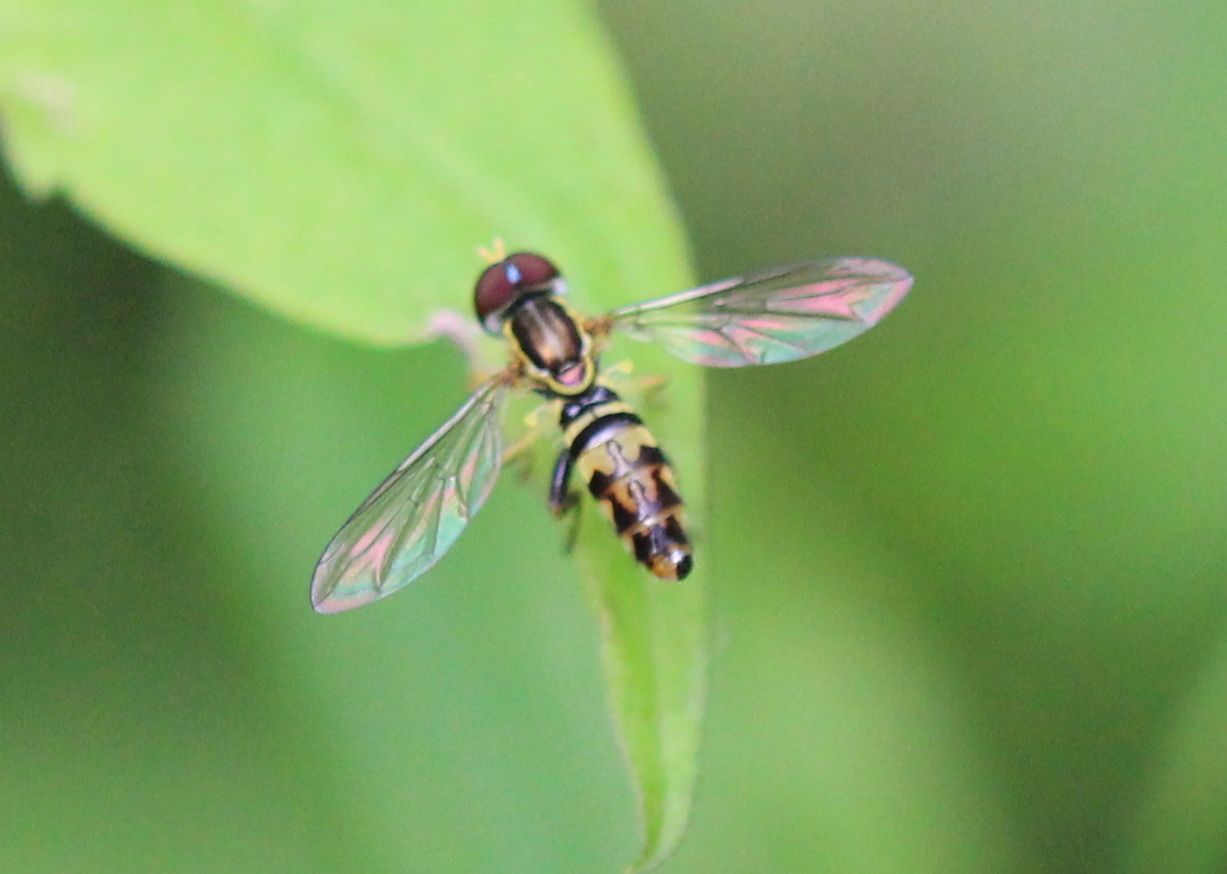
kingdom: Animalia
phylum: Arthropoda
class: Insecta
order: Diptera
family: Syrphidae
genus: Toxomerus
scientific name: Toxomerus geminatus
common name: Eastern calligrapher
